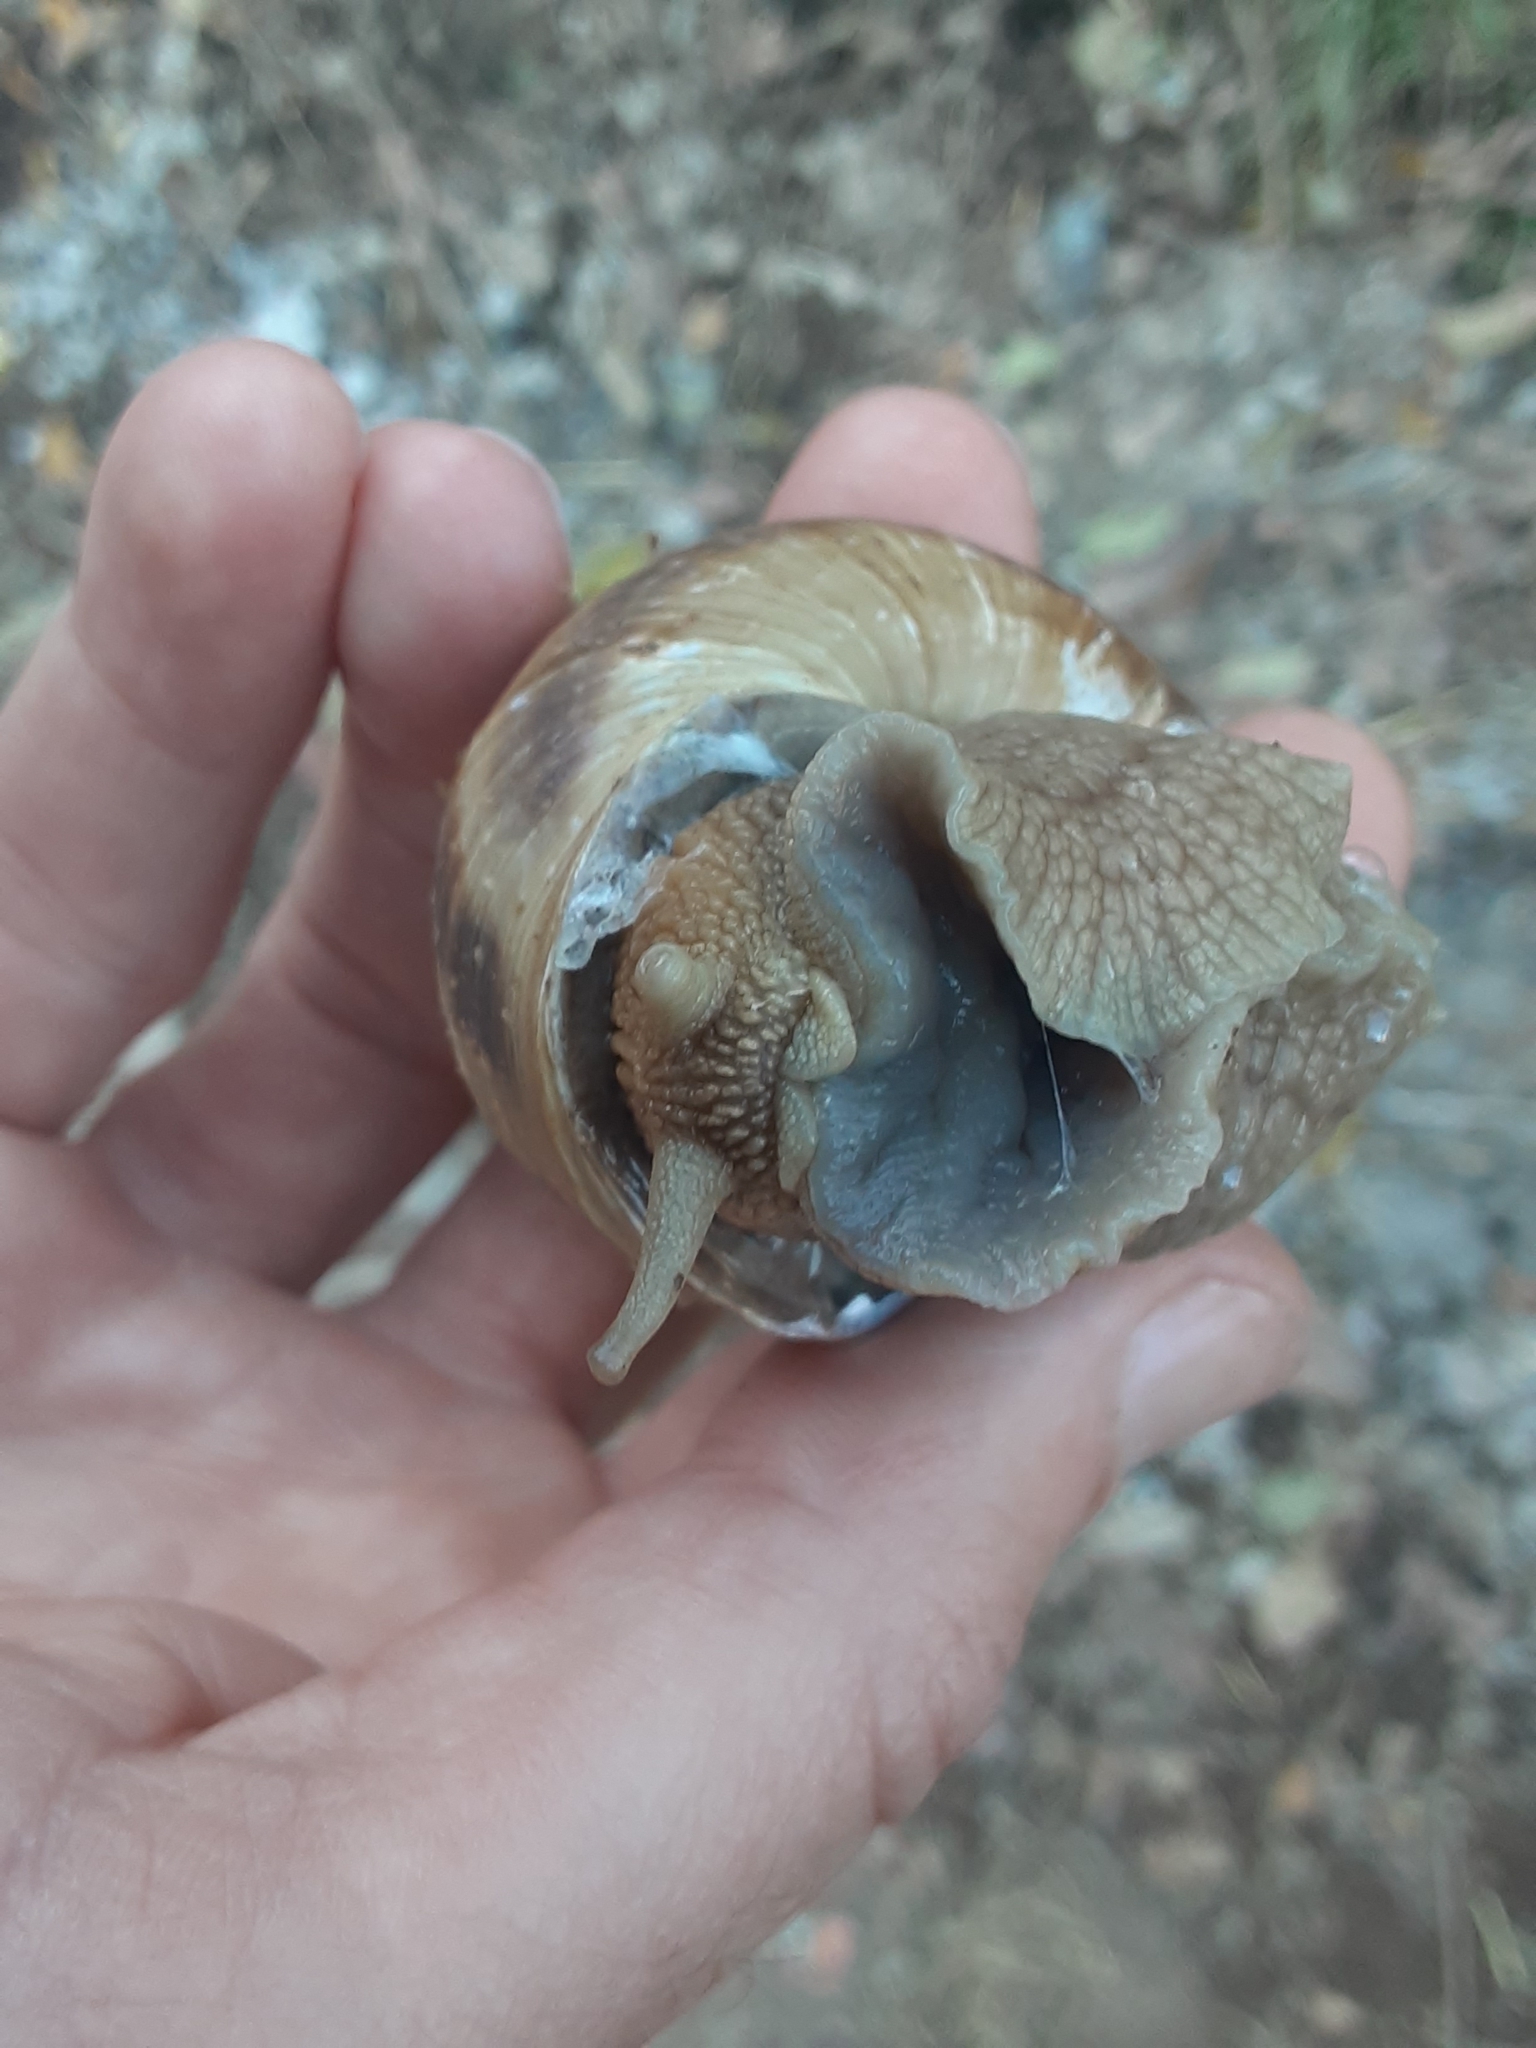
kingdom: Animalia
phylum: Mollusca
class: Gastropoda
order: Stylommatophora
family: Helicidae
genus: Helix
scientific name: Helix buchii
